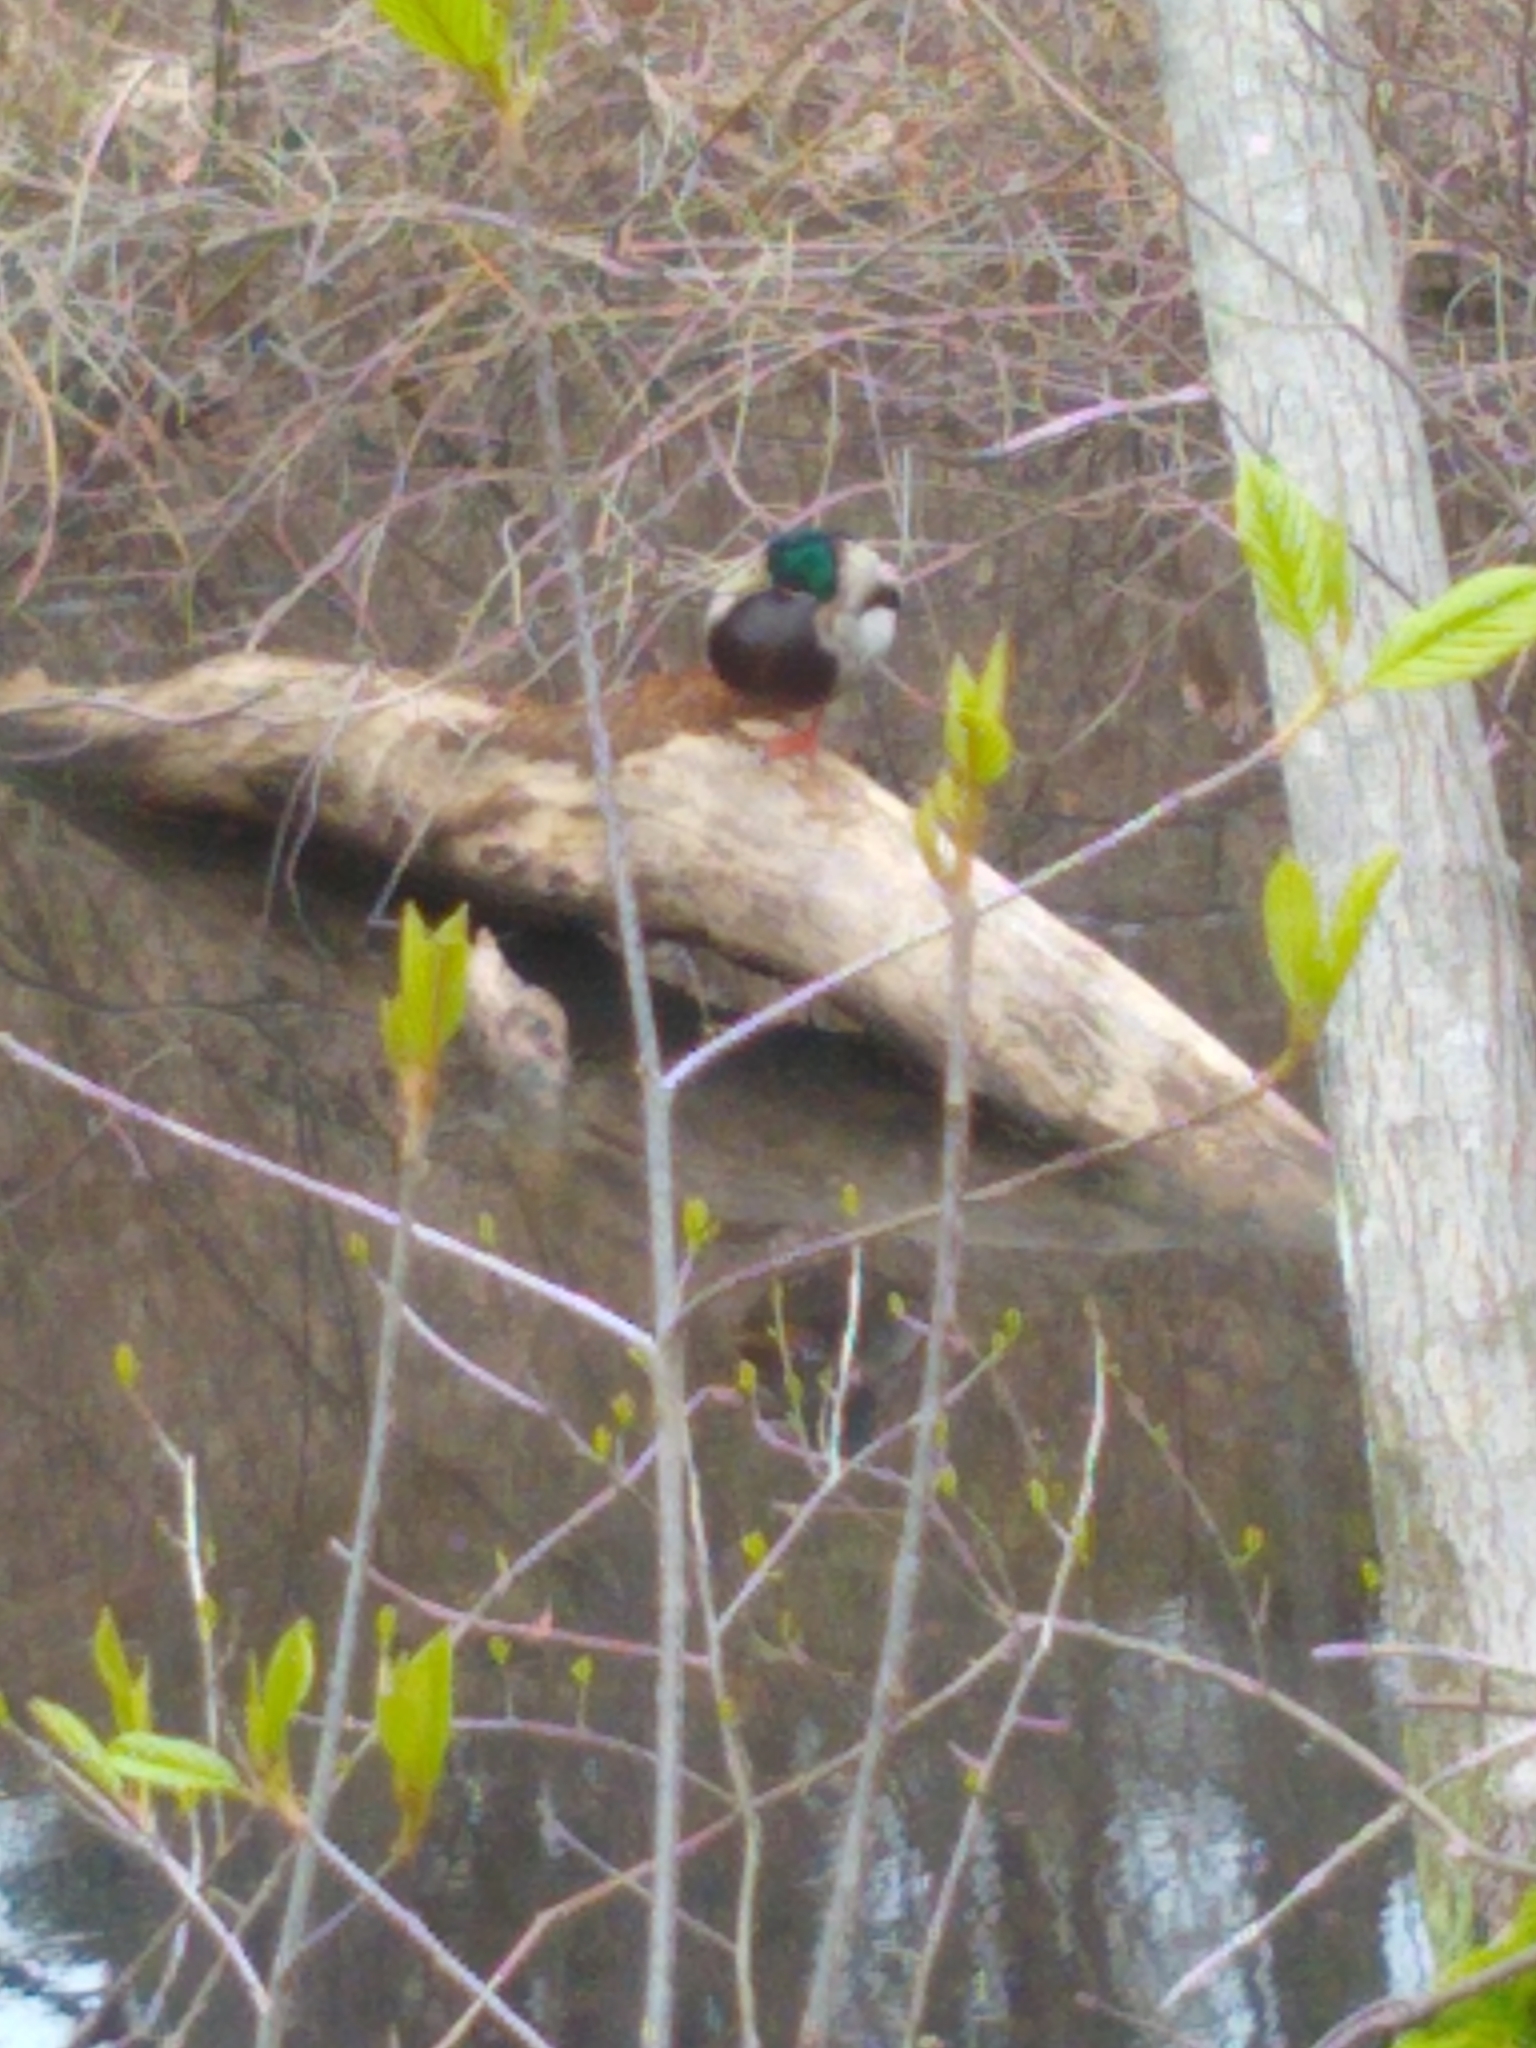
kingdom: Animalia
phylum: Chordata
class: Aves
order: Anseriformes
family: Anatidae
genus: Anas
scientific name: Anas platyrhynchos
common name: Mallard
